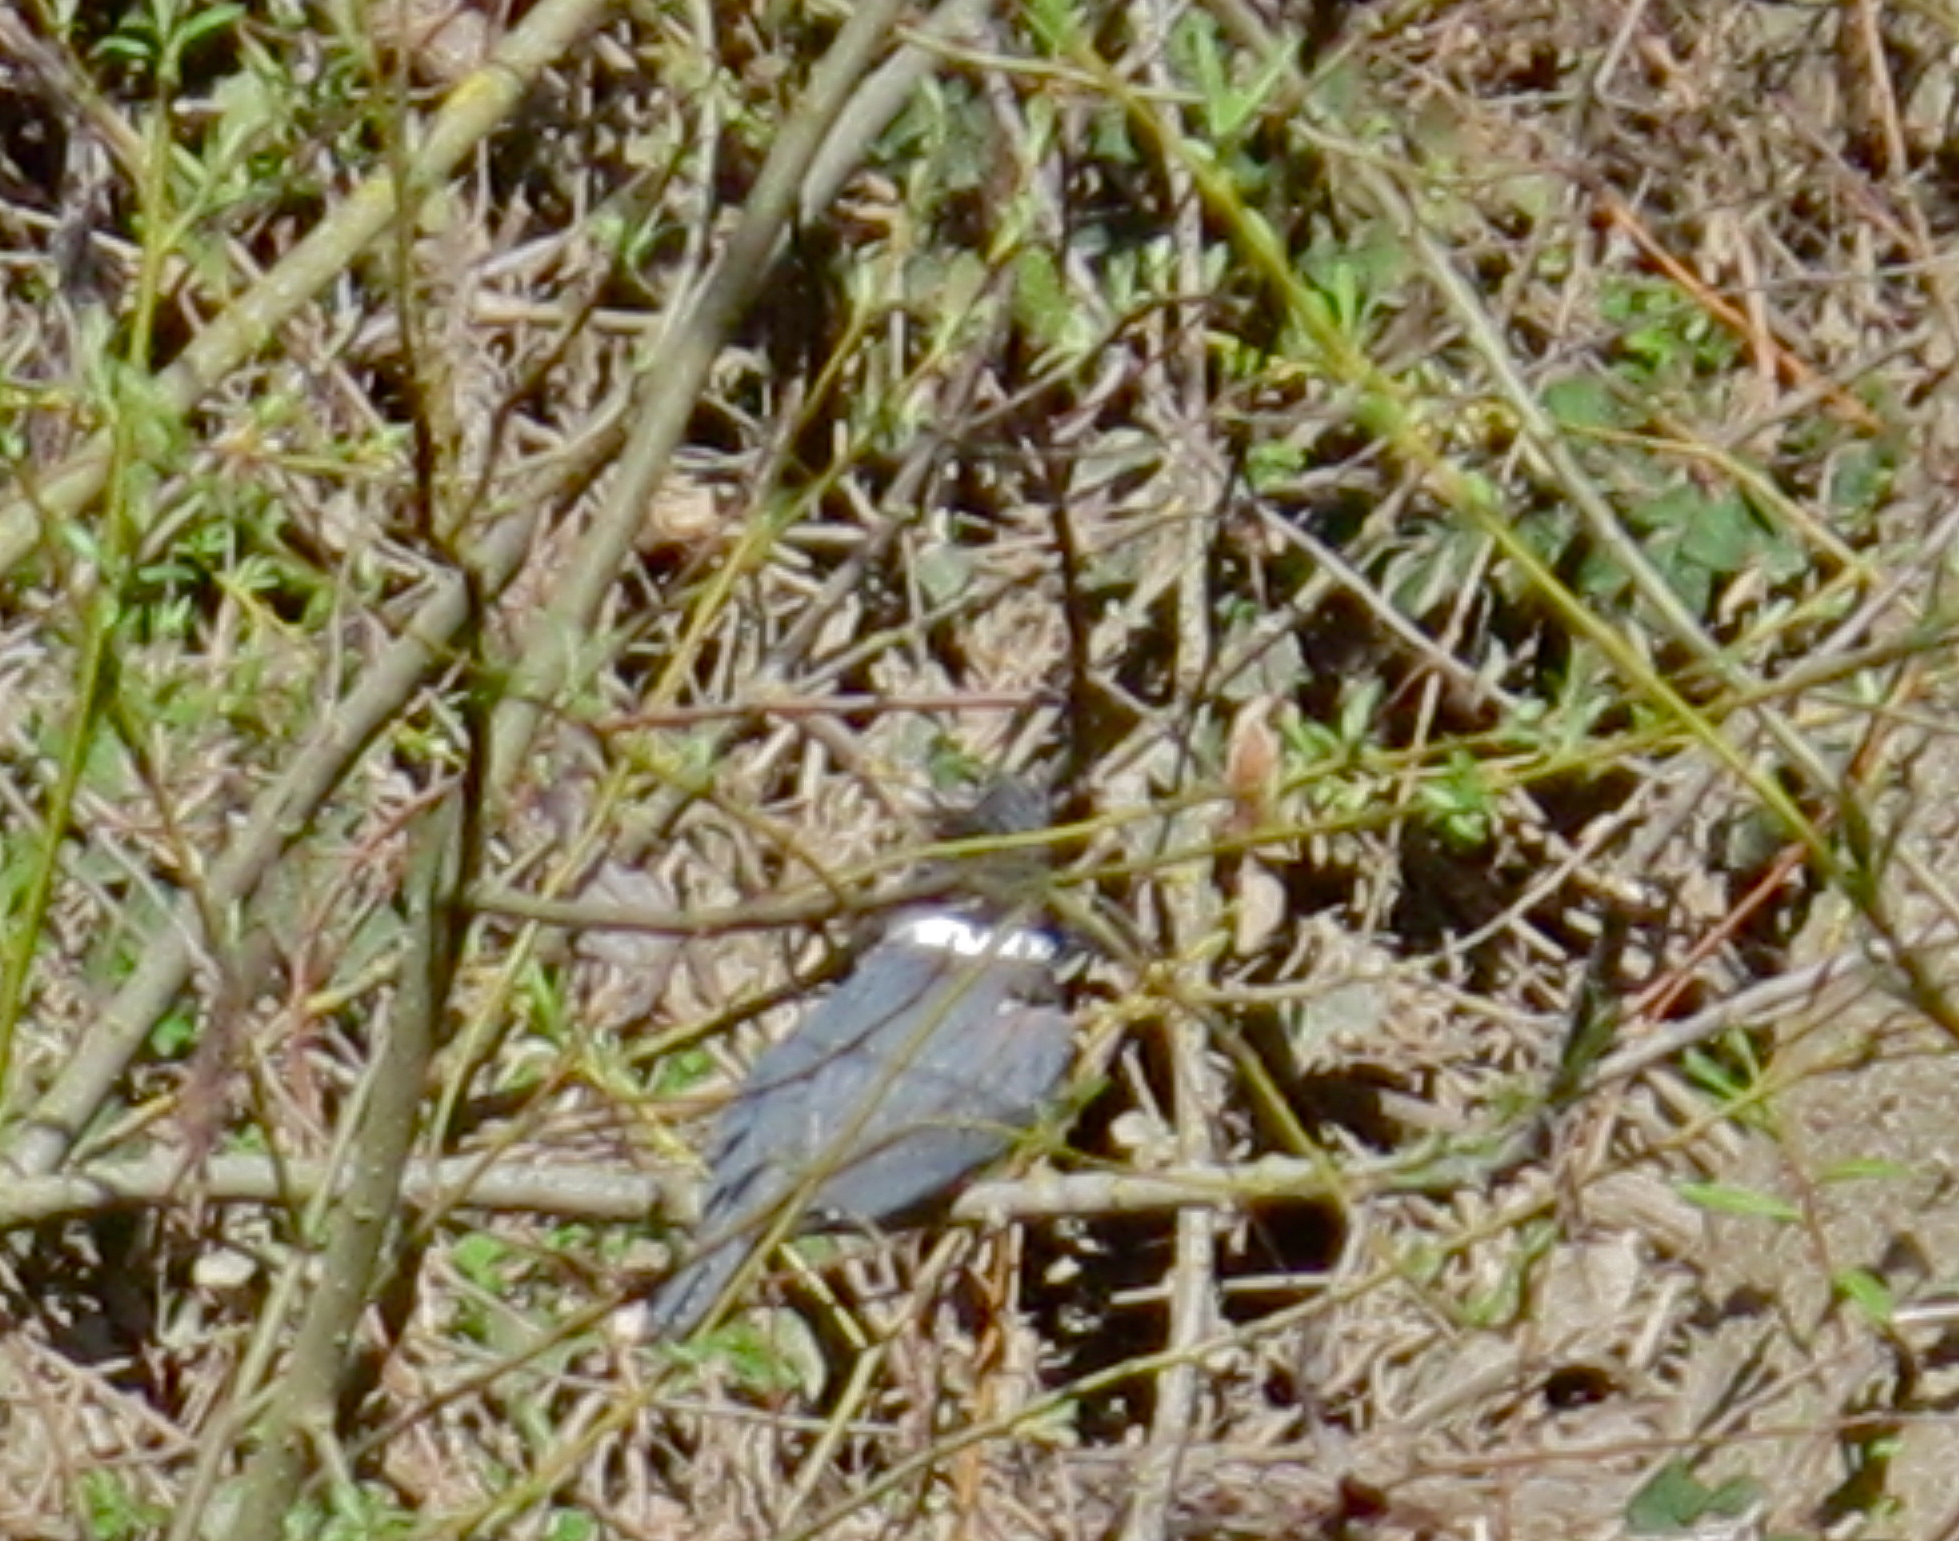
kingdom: Animalia
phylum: Chordata
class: Aves
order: Coraciiformes
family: Alcedinidae
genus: Megaceryle
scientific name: Megaceryle alcyon
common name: Belted kingfisher
